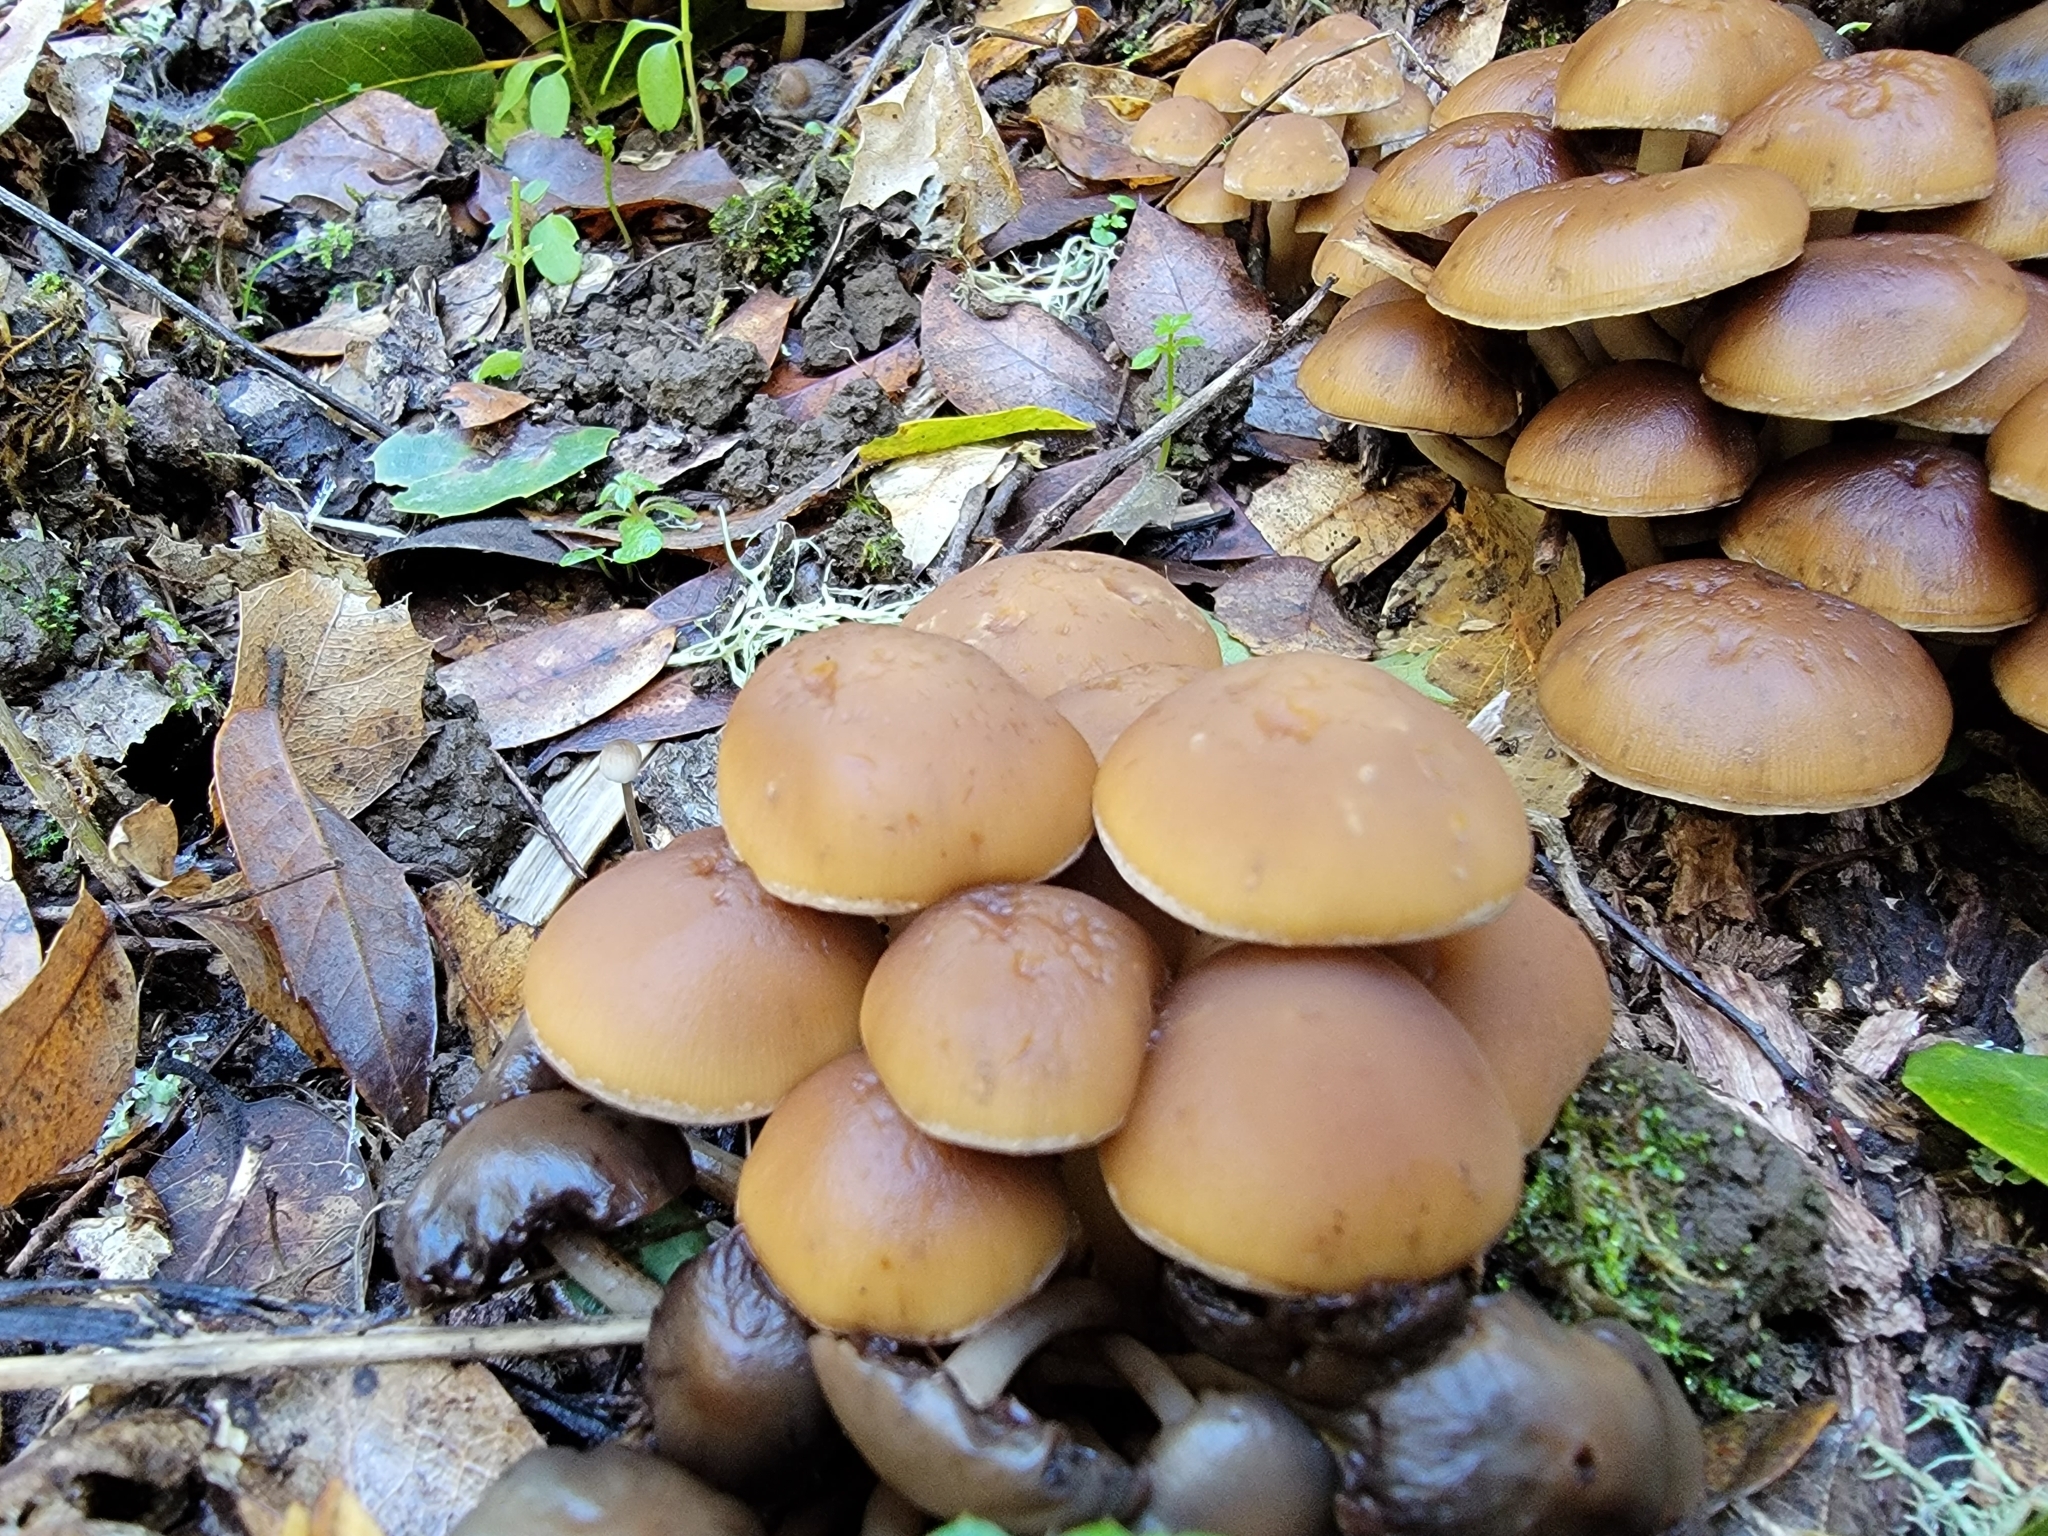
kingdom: Fungi
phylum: Basidiomycota
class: Agaricomycetes
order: Agaricales
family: Psathyrellaceae
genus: Psathyrella
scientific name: Psathyrella piluliformis
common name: Common stump brittlestem
